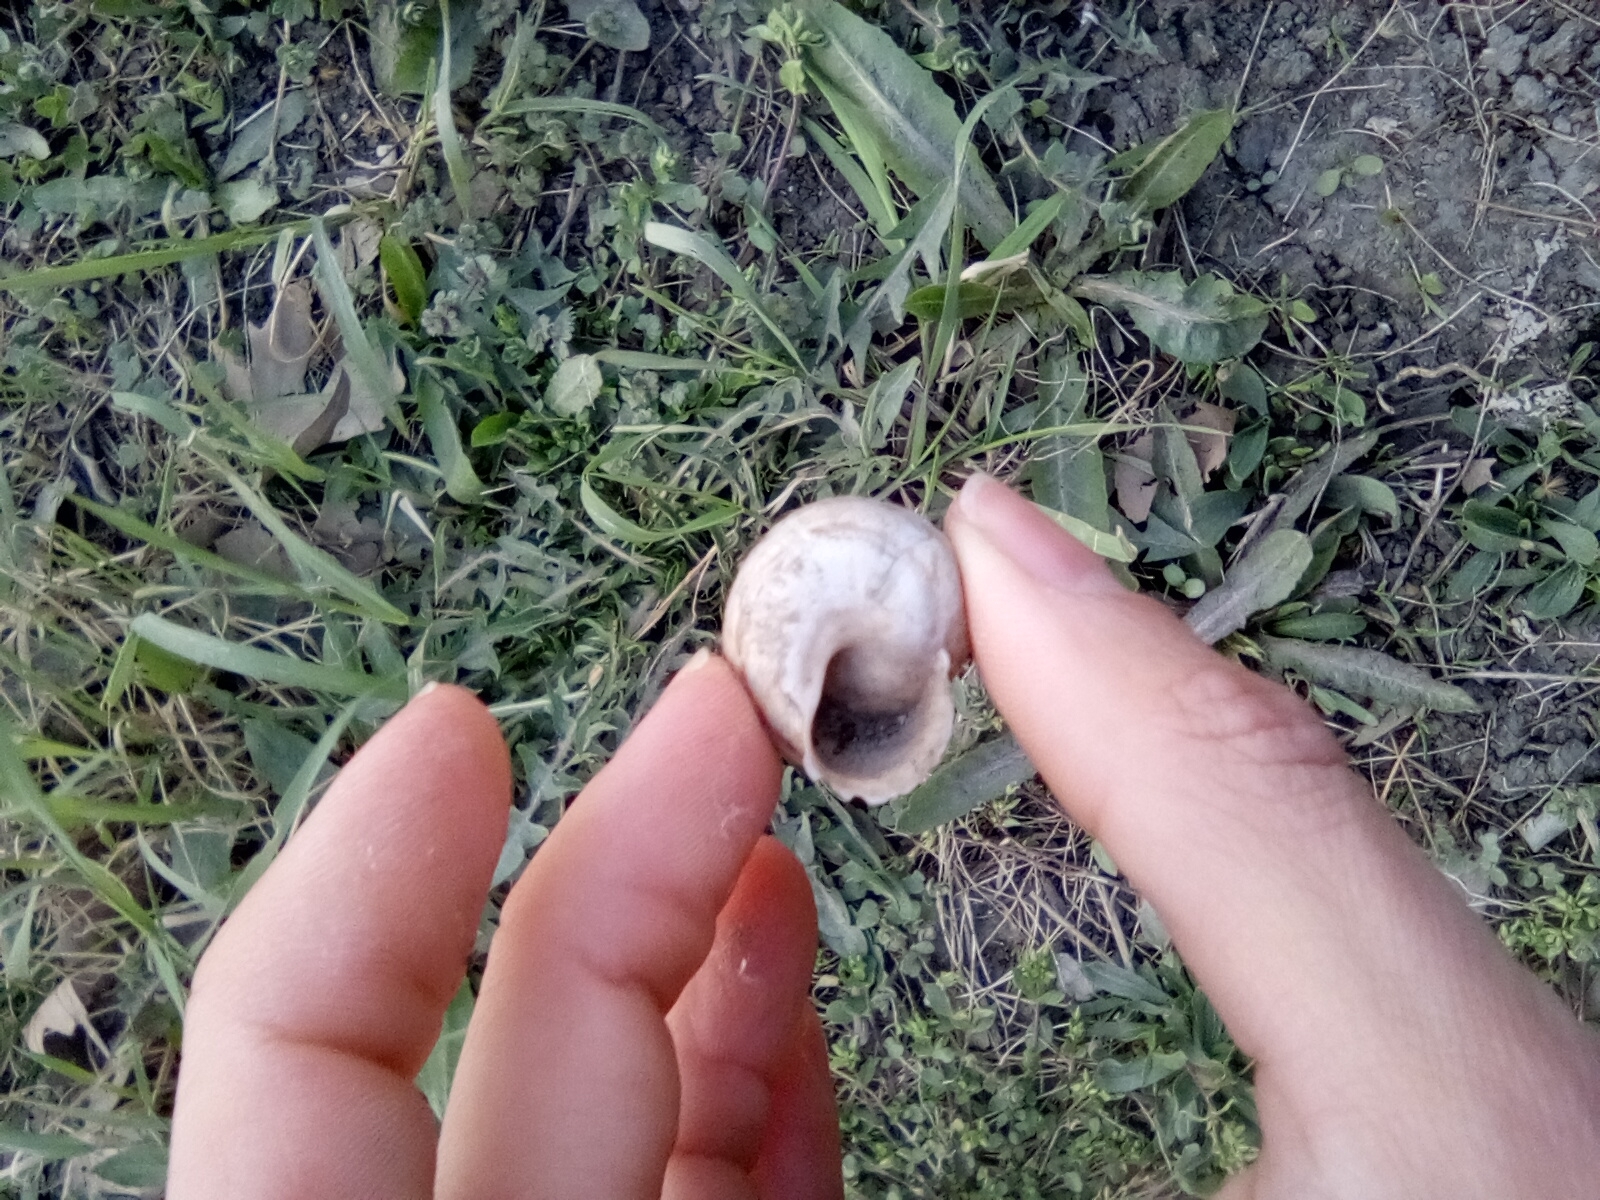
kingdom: Animalia
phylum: Mollusca
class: Gastropoda
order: Stylommatophora
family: Helicidae
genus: Eobania
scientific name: Eobania vermiculata
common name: Chocolateband snail
